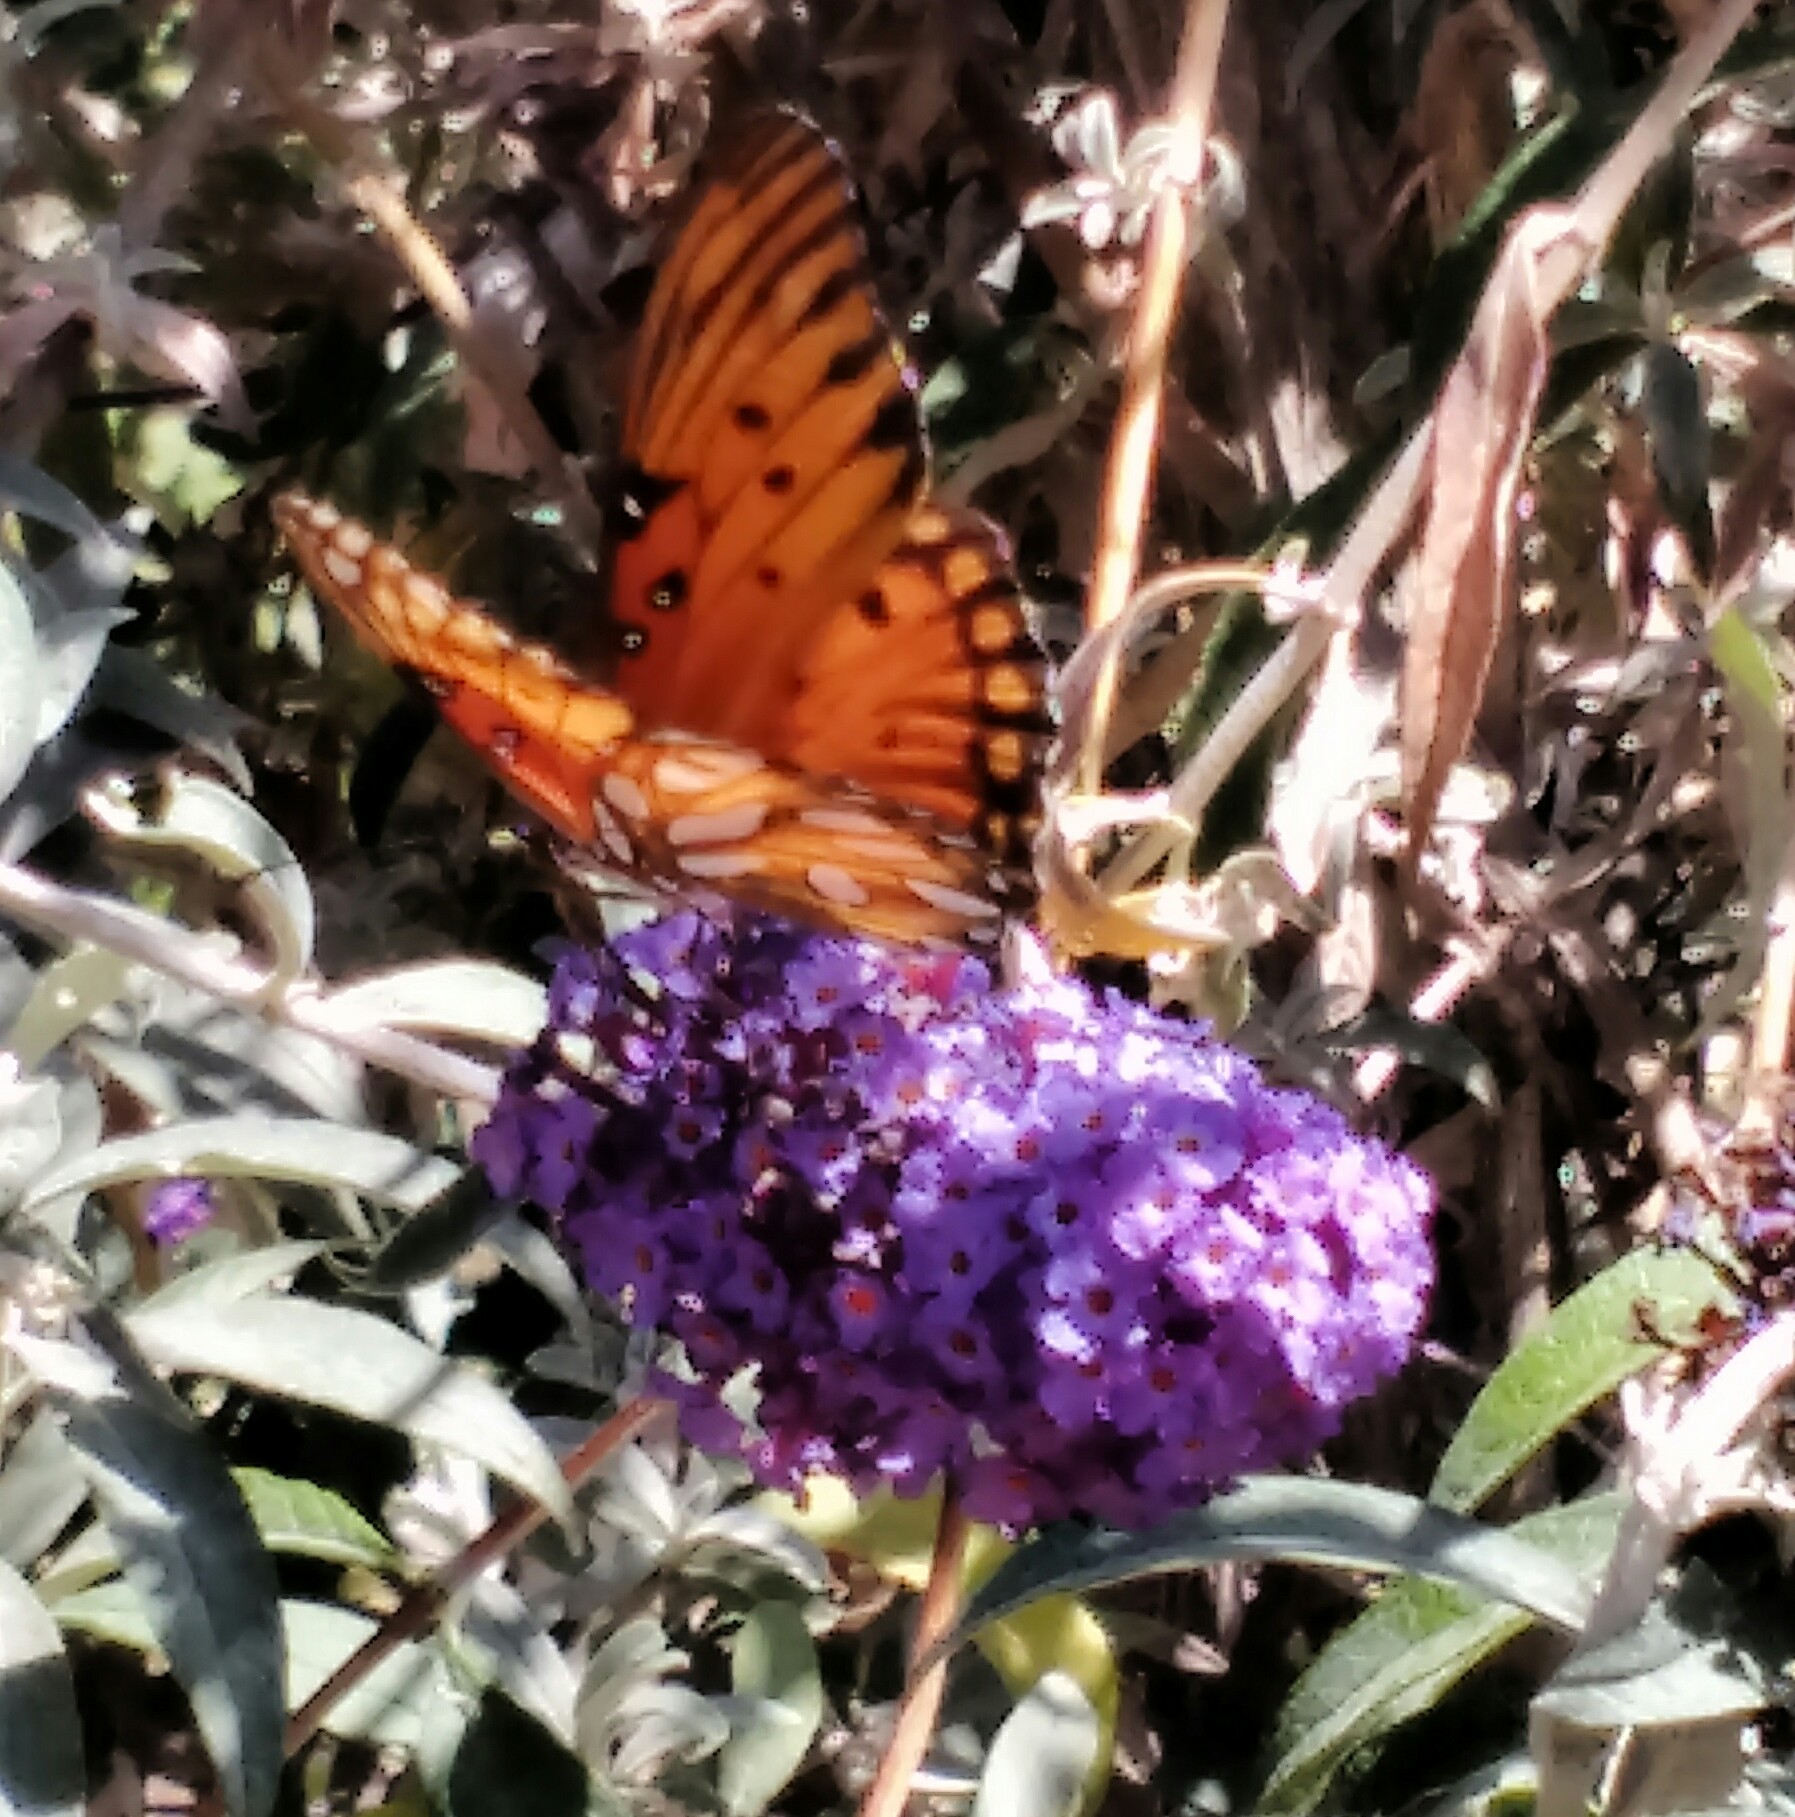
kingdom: Animalia
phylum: Arthropoda
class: Insecta
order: Lepidoptera
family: Nymphalidae
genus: Dione
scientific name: Dione vanillae
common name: Gulf fritillary
